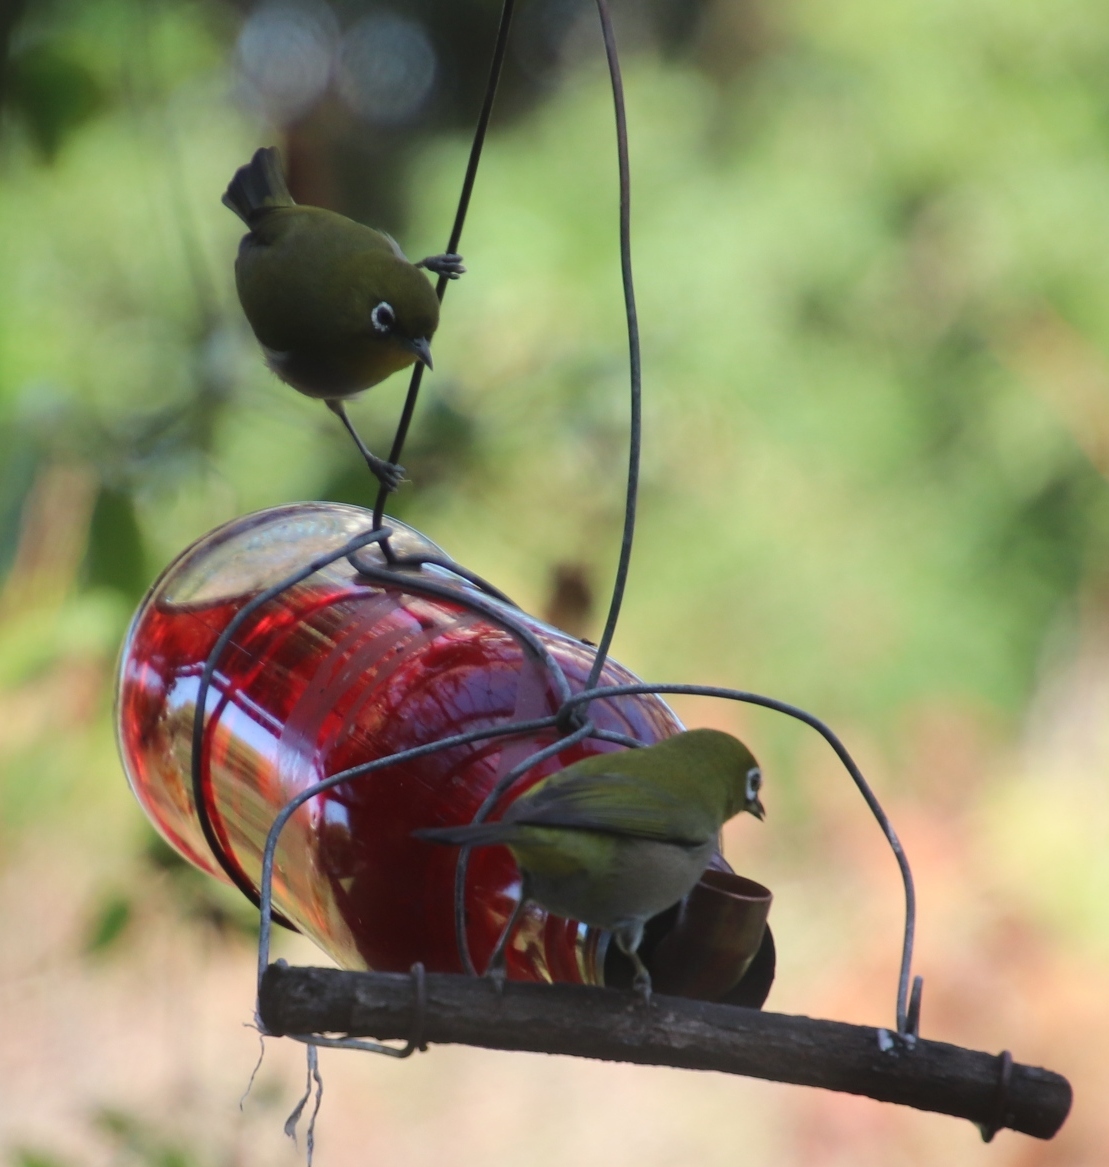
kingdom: Animalia
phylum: Chordata
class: Aves
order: Passeriformes
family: Zosteropidae
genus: Zosterops
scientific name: Zosterops virens
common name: Cape white-eye
